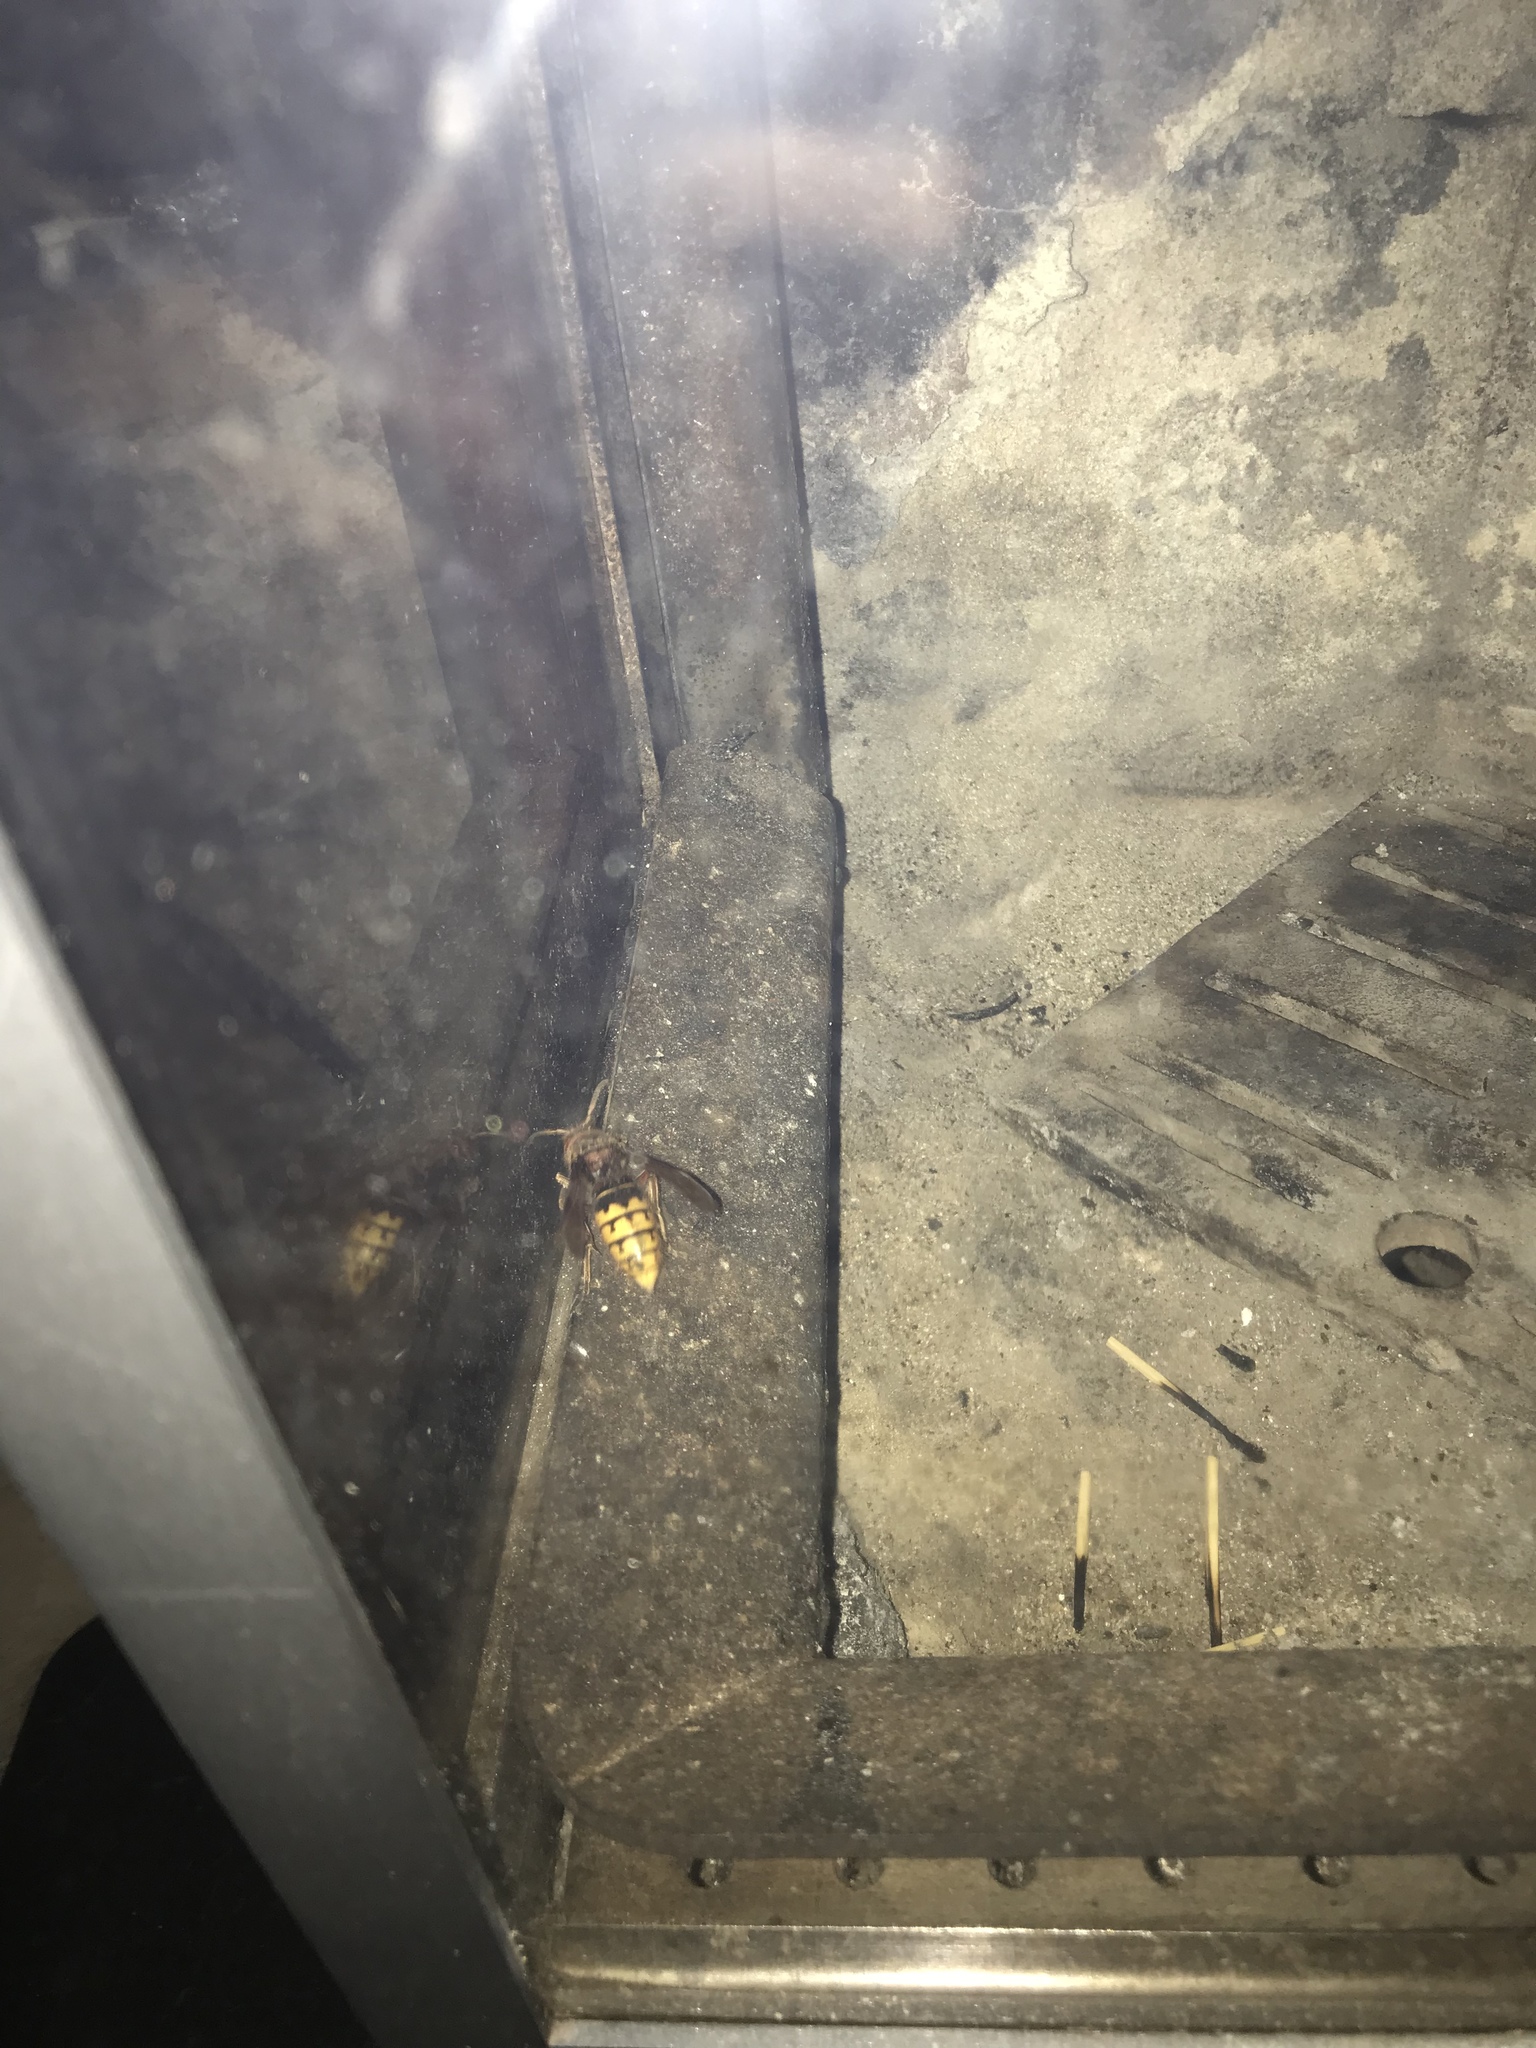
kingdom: Animalia
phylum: Arthropoda
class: Insecta
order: Hymenoptera
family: Vespidae
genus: Vespa
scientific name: Vespa crabro
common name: Hornet
